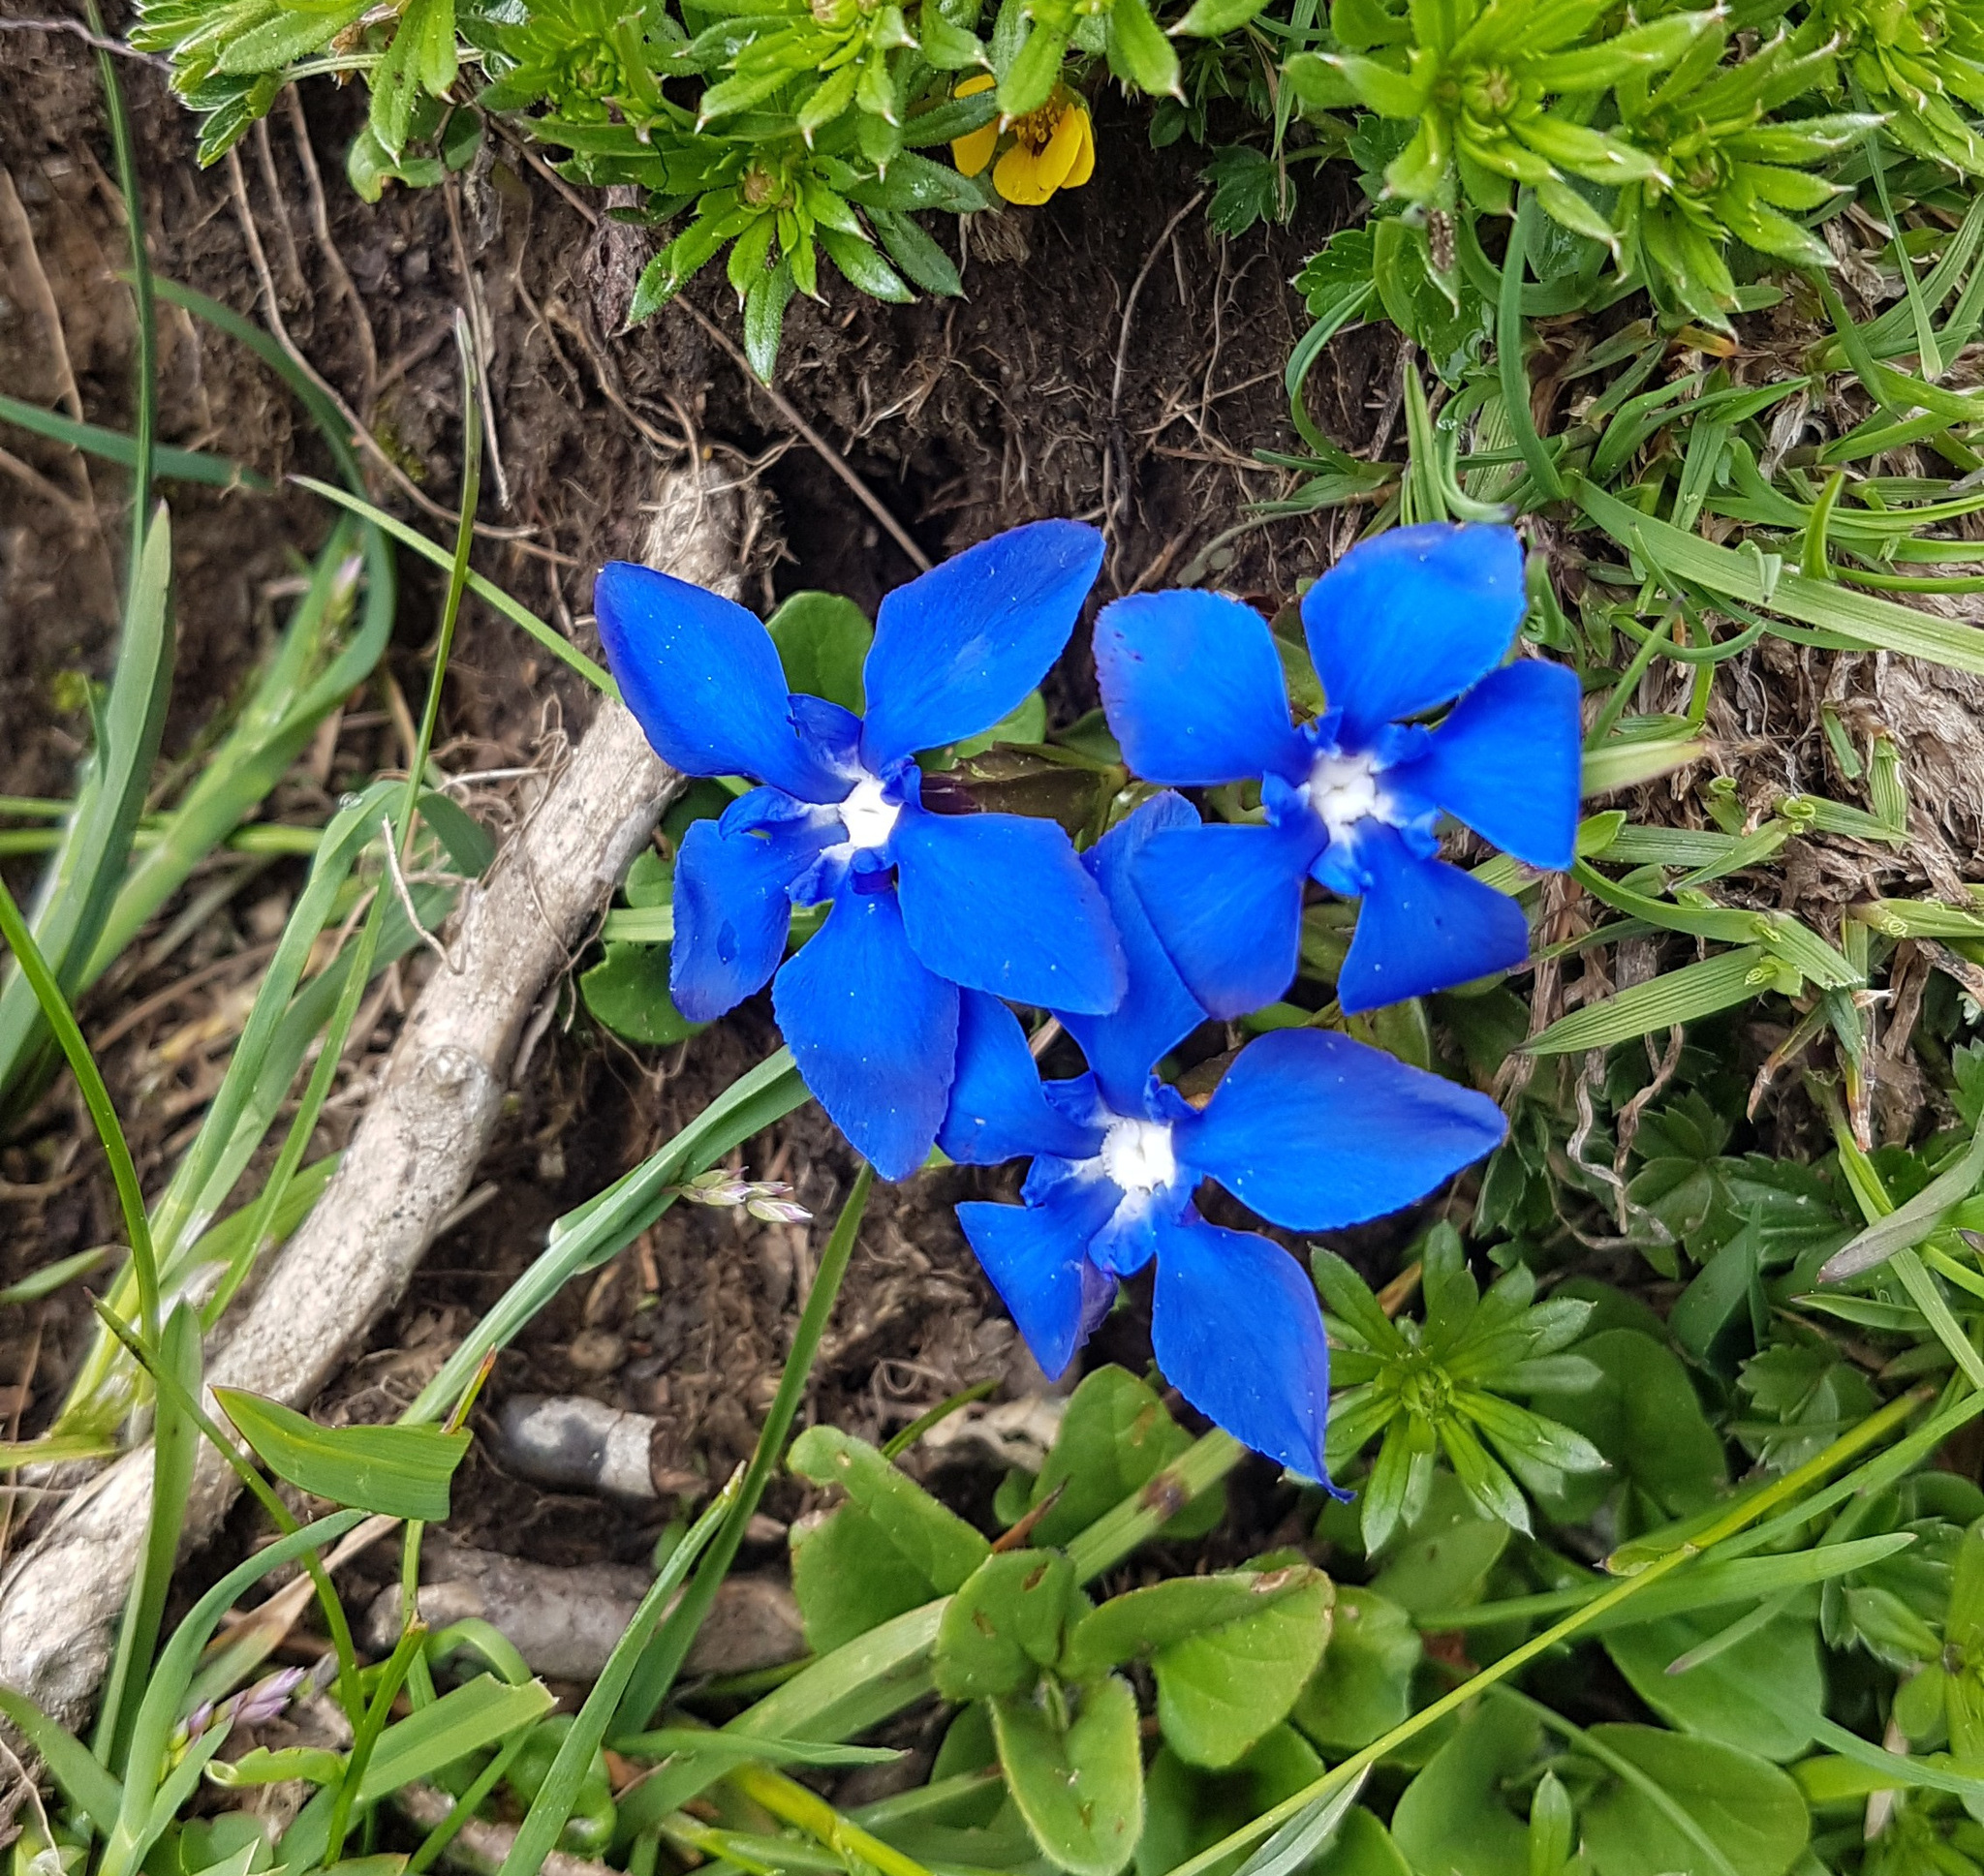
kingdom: Plantae
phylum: Tracheophyta
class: Magnoliopsida
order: Gentianales
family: Gentianaceae
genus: Gentiana
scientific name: Gentiana verna
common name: Spring gentian
